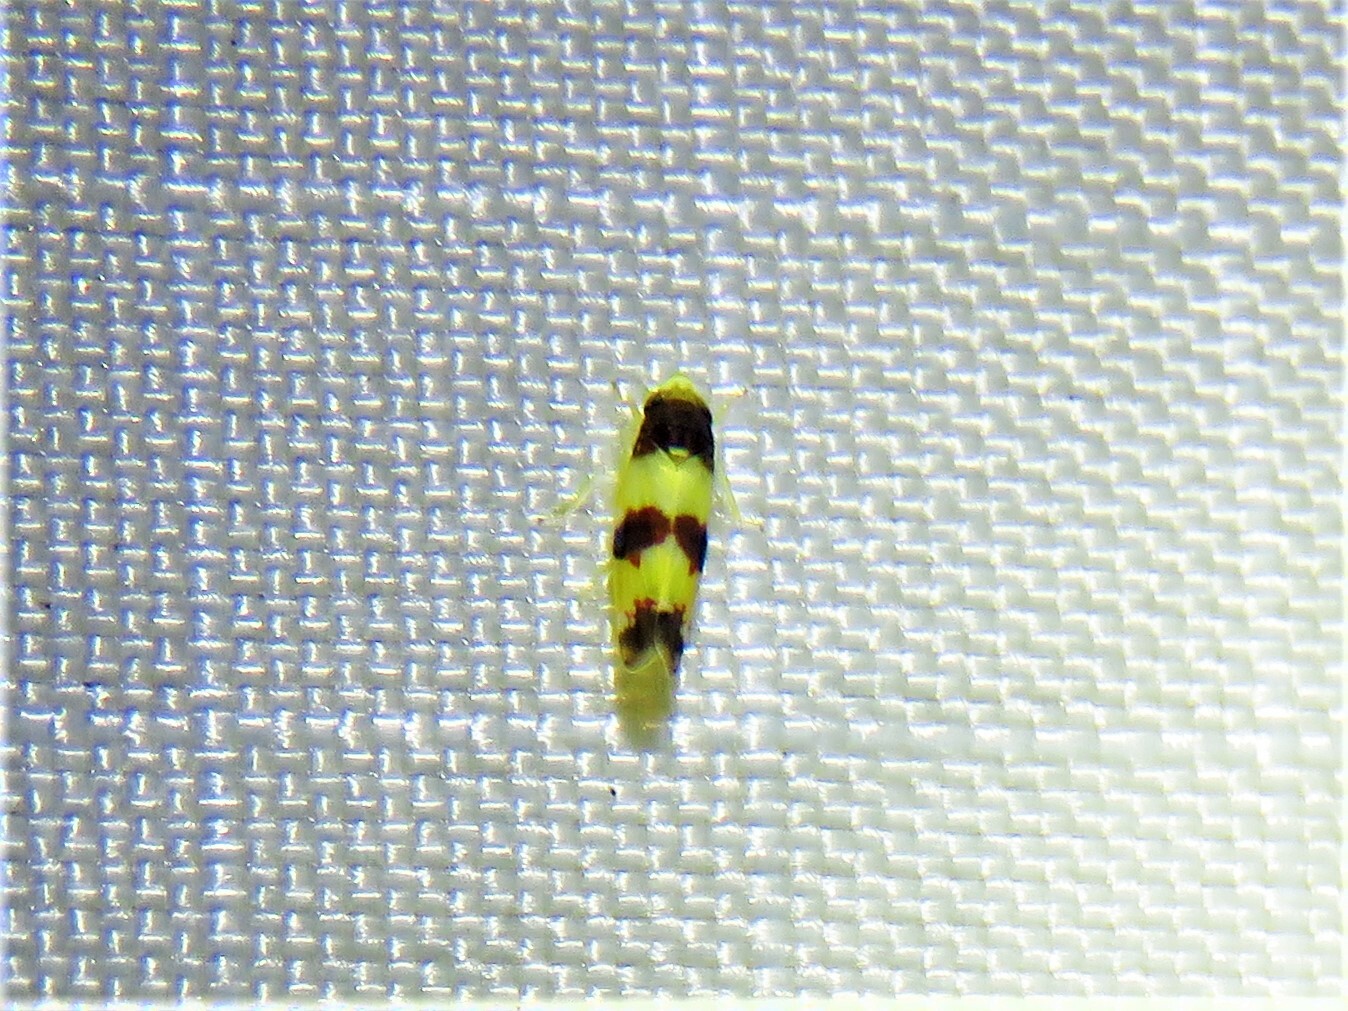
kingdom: Animalia
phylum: Arthropoda
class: Insecta
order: Hemiptera
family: Cicadellidae
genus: Erythroneura
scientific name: Erythroneura bistrata
